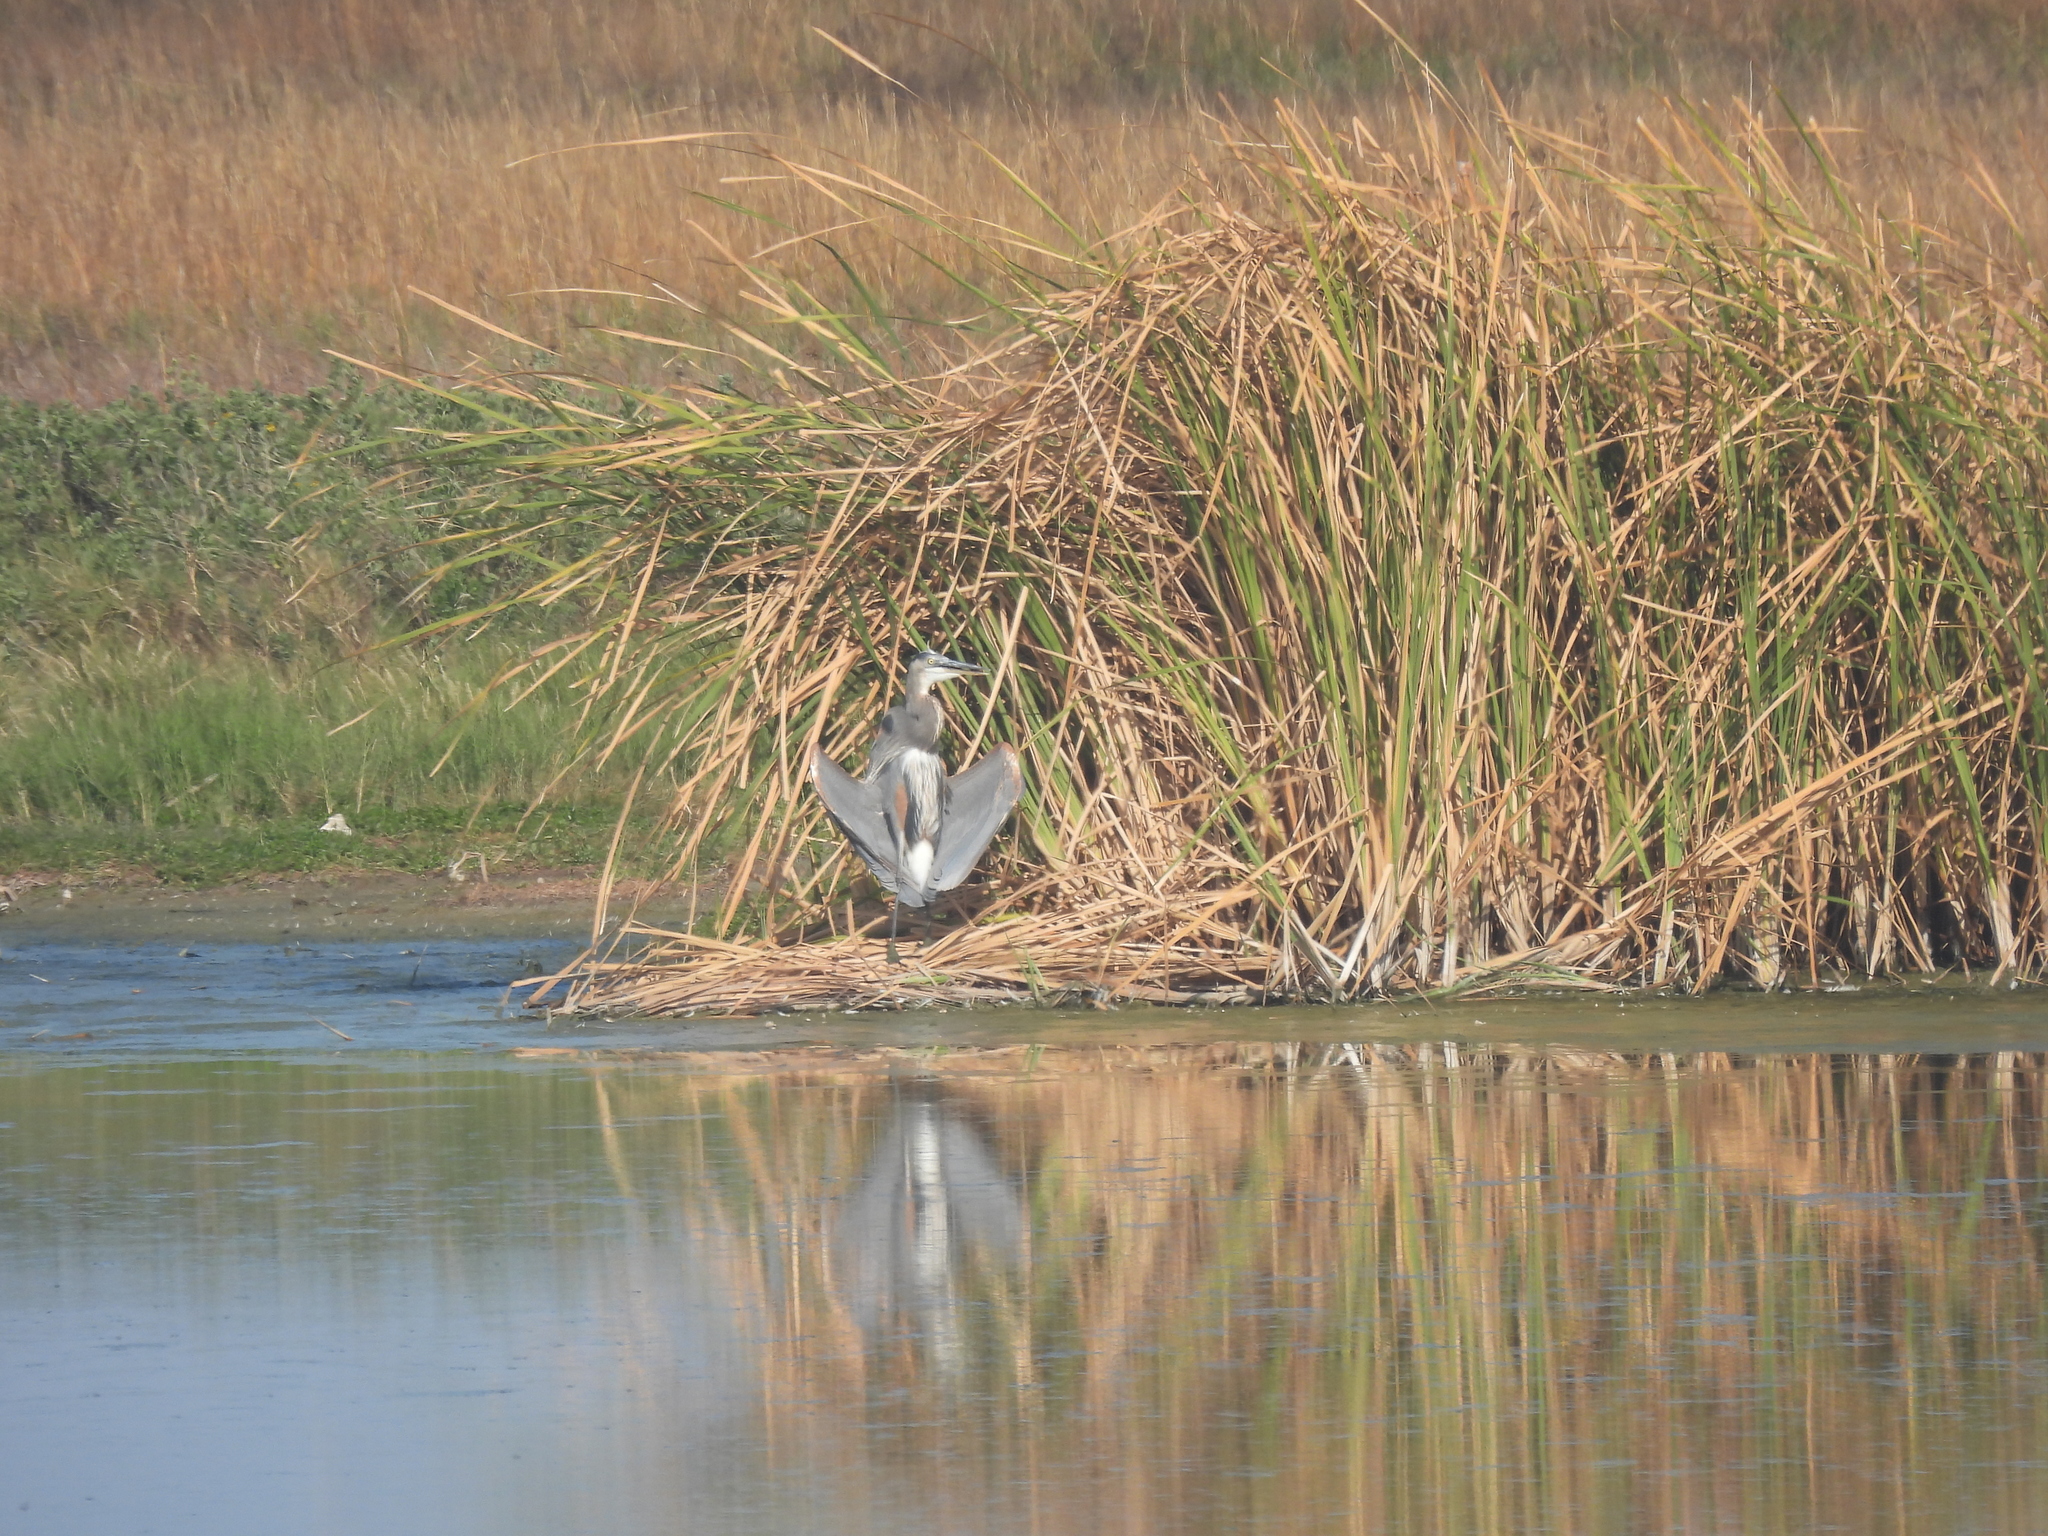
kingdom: Animalia
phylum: Chordata
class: Aves
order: Pelecaniformes
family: Ardeidae
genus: Ardea
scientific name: Ardea herodias
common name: Great blue heron
